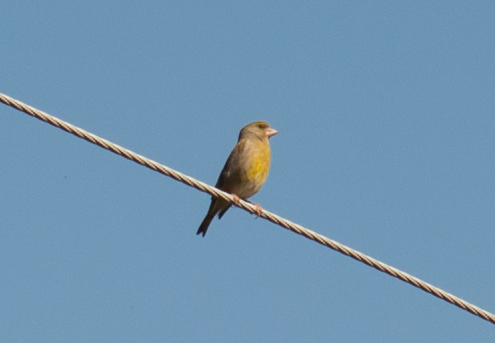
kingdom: Plantae
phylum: Tracheophyta
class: Liliopsida
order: Poales
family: Poaceae
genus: Chloris
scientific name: Chloris chloris
